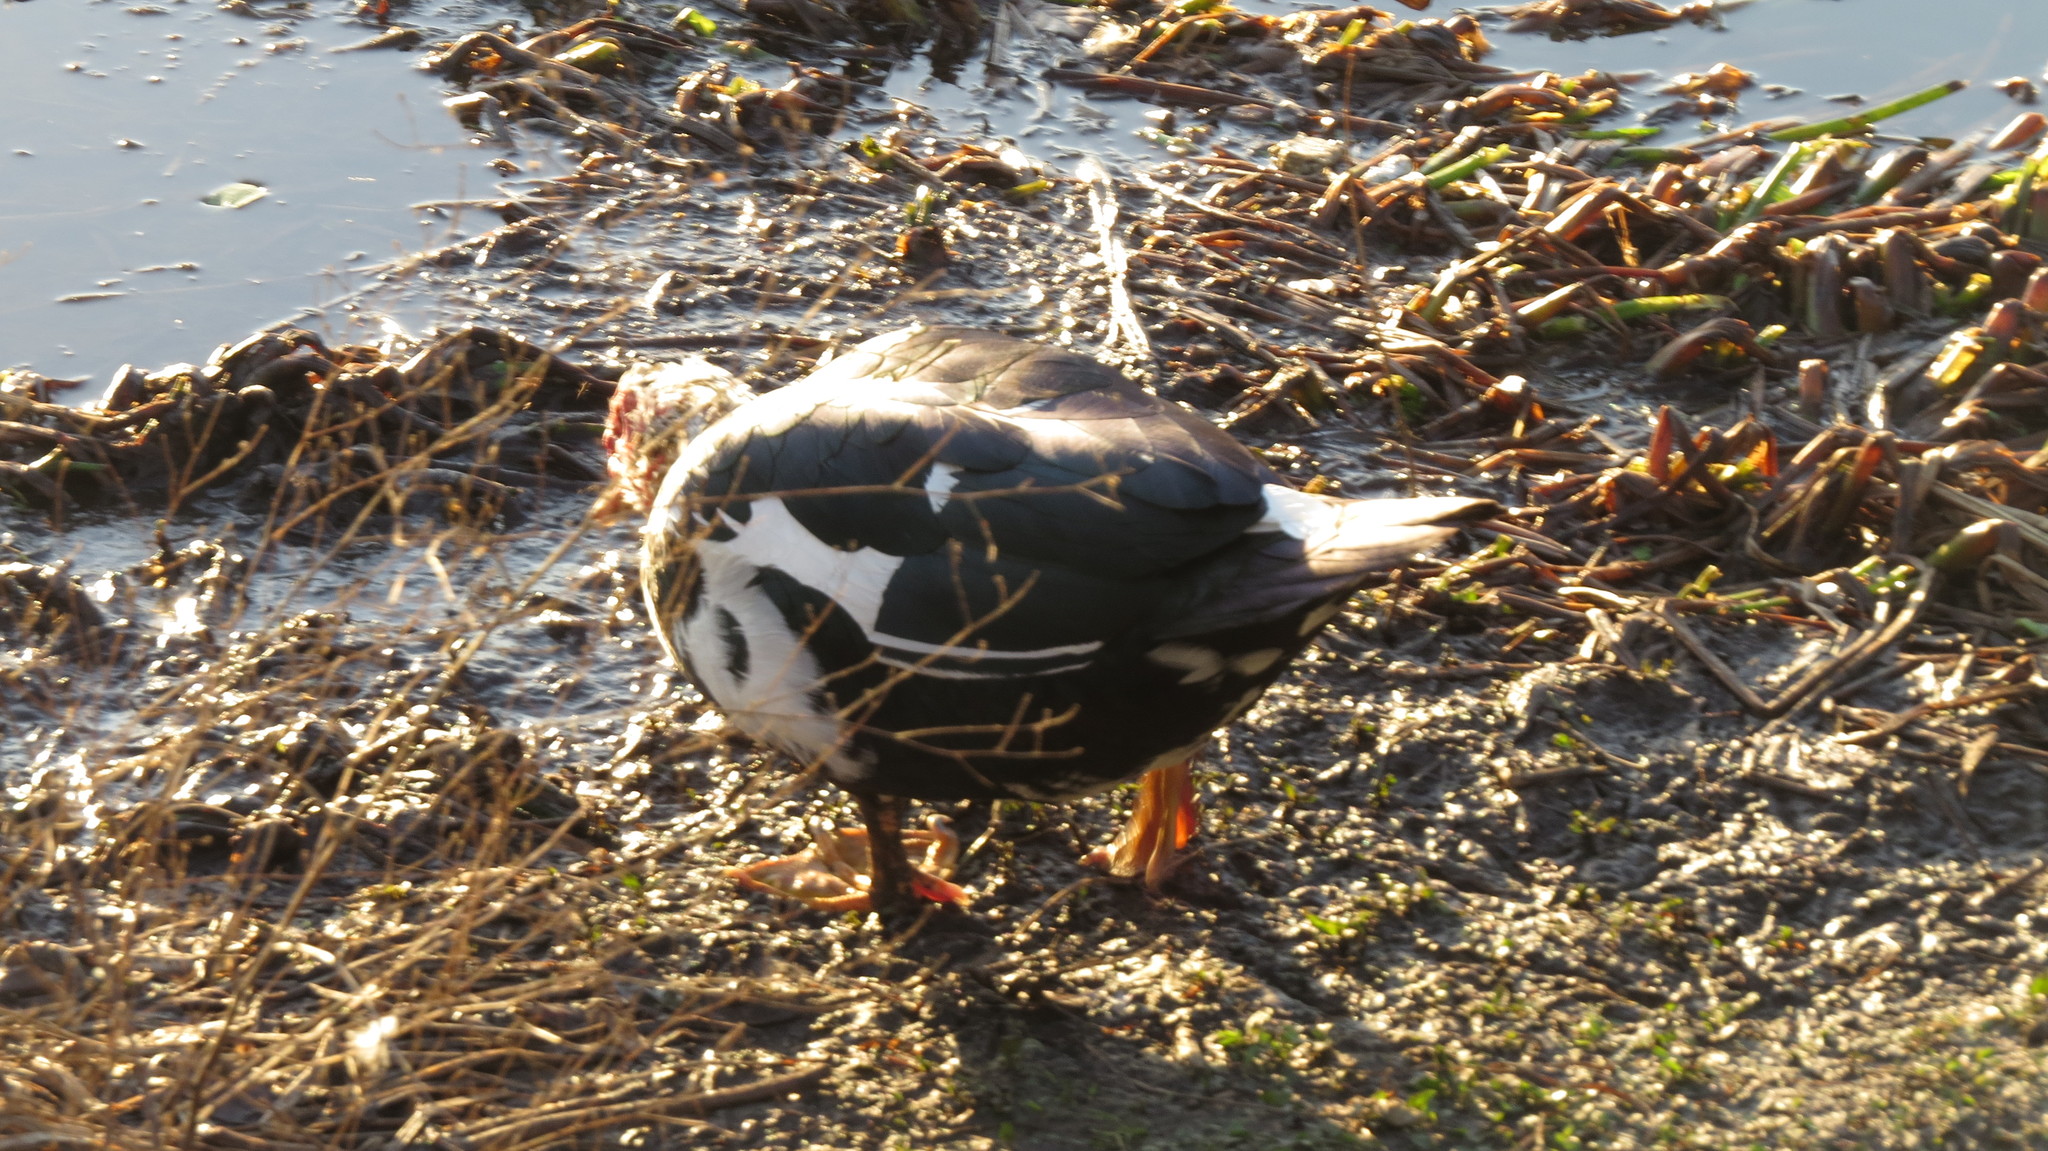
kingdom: Animalia
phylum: Chordata
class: Aves
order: Anseriformes
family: Anatidae
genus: Cairina
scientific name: Cairina moschata
